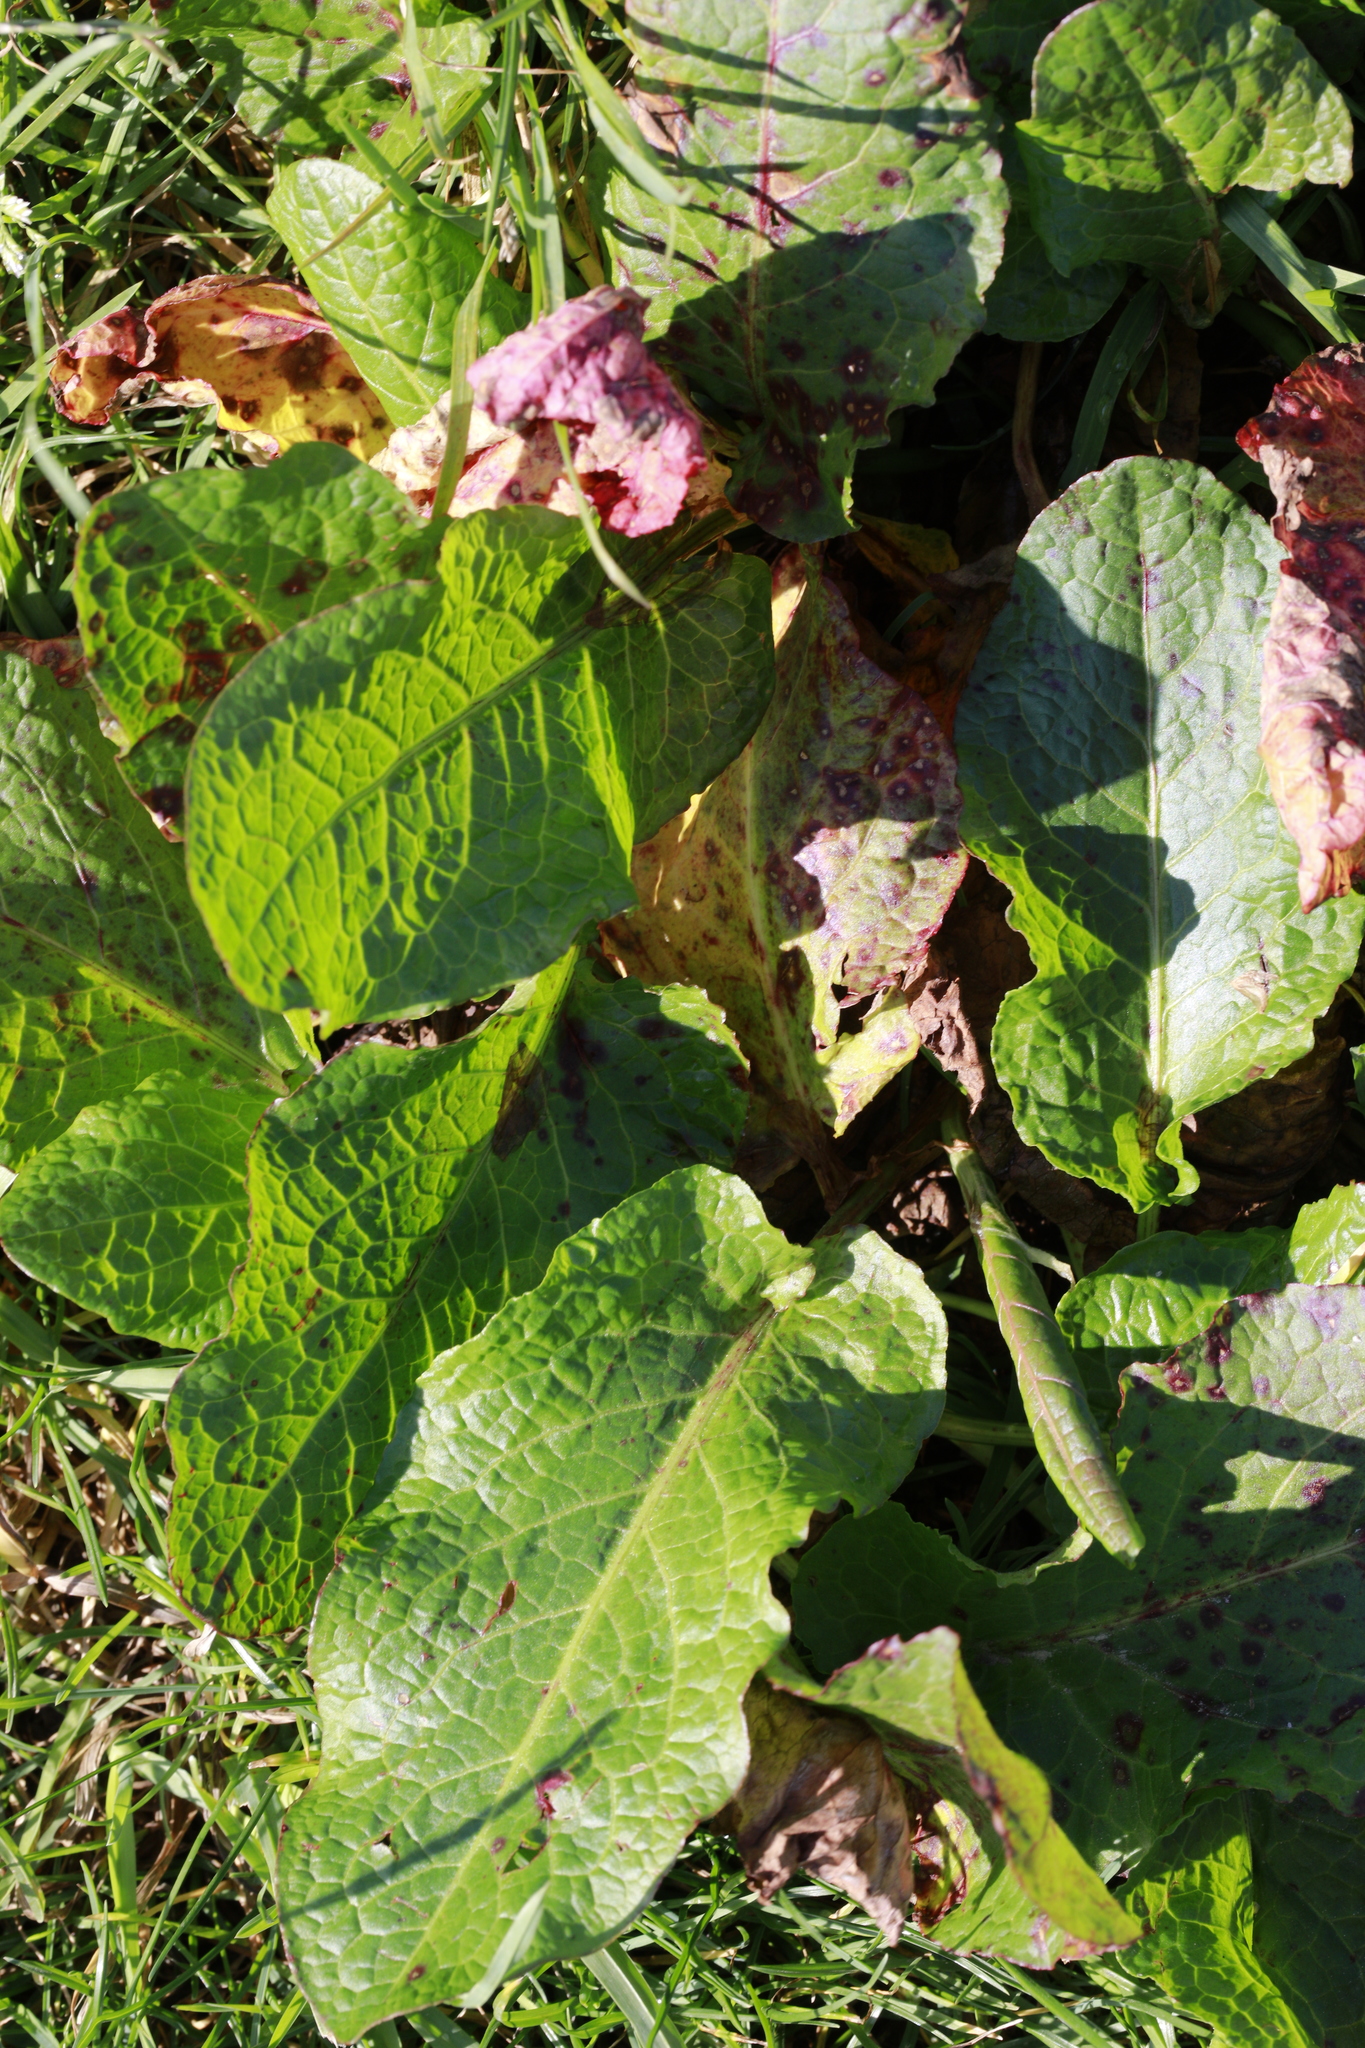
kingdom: Plantae
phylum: Tracheophyta
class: Magnoliopsida
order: Caryophyllales
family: Polygonaceae
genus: Rumex
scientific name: Rumex obtusifolius
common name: Bitter dock
